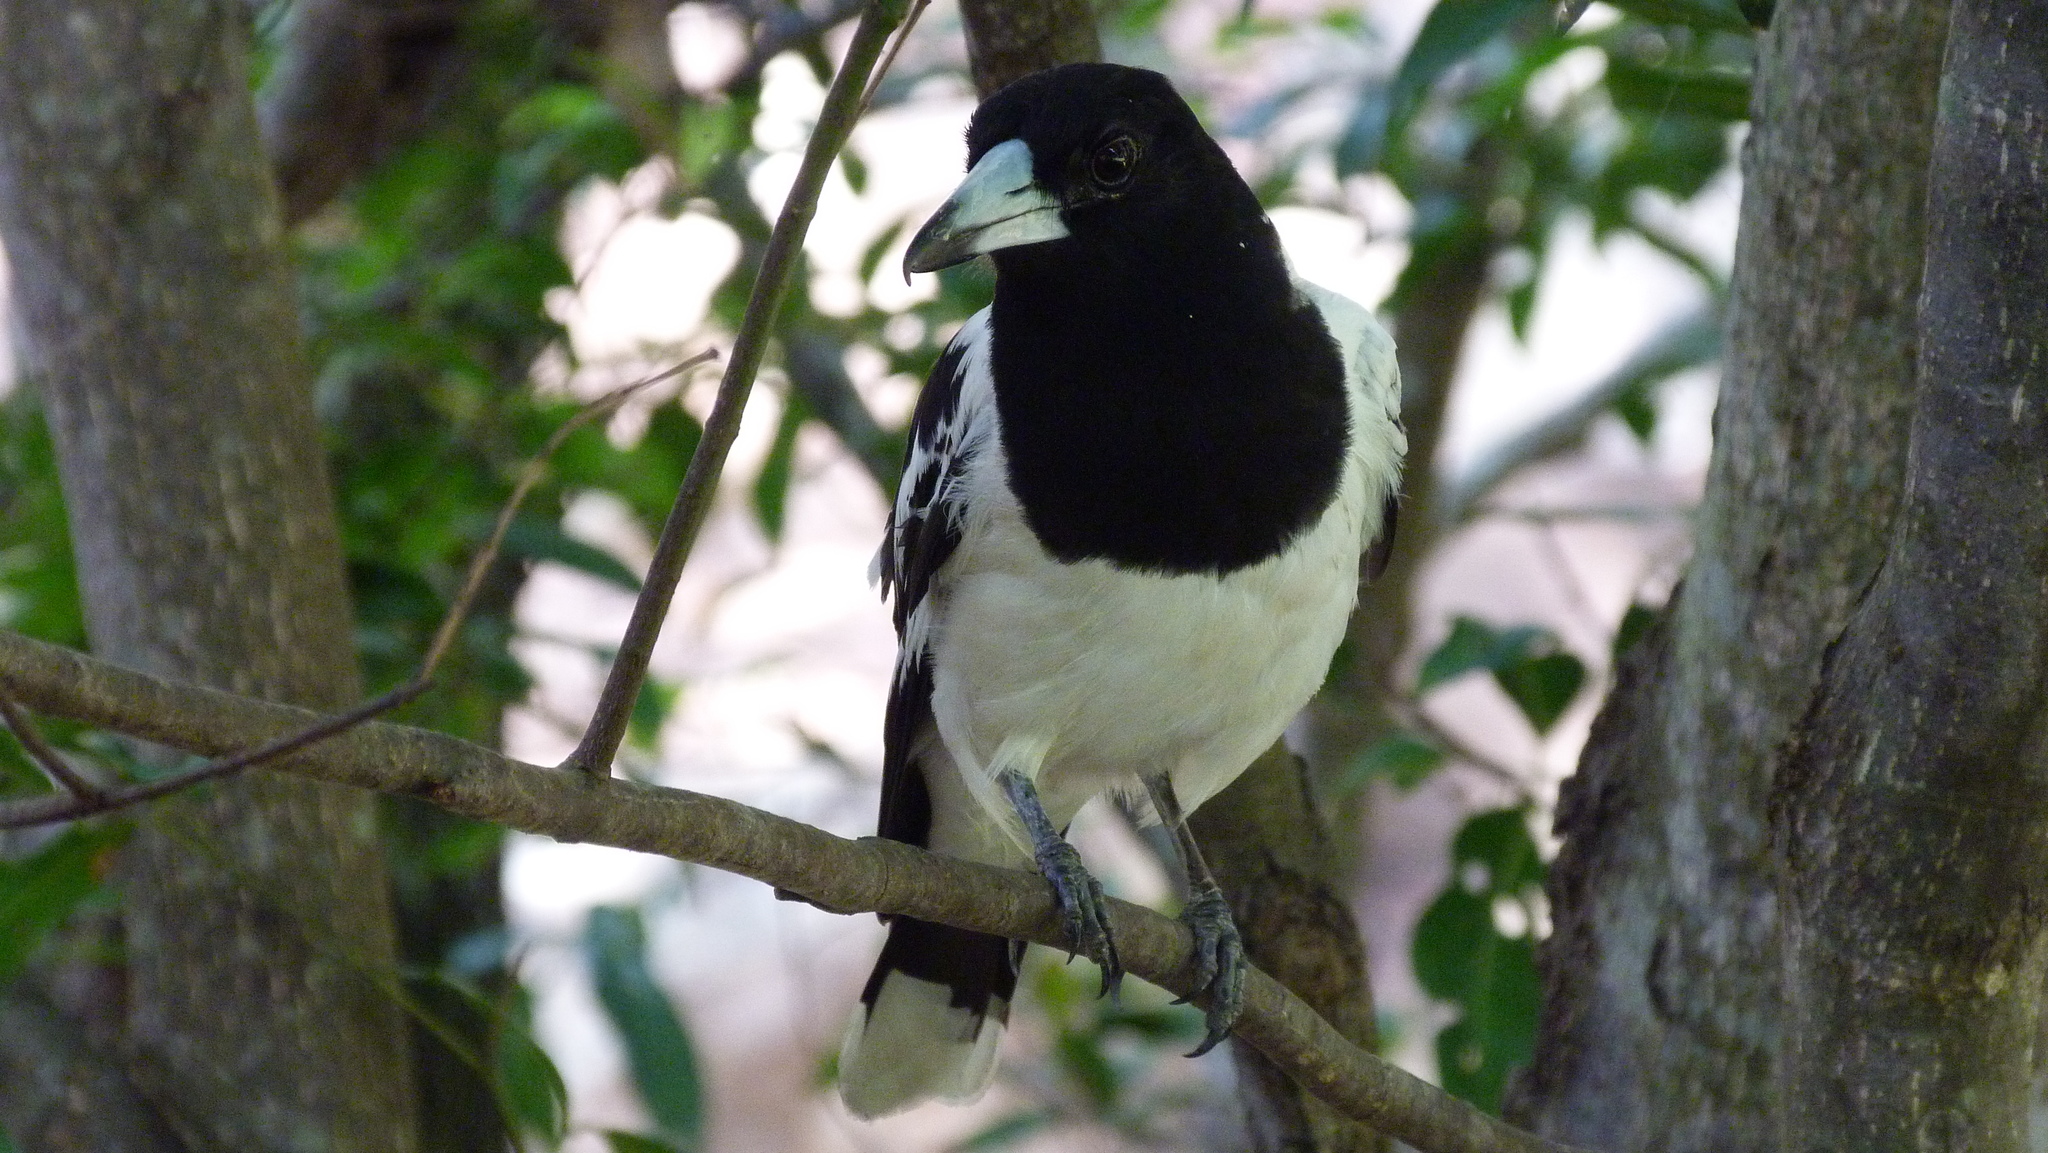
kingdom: Animalia
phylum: Chordata
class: Aves
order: Passeriformes
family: Cracticidae
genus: Cracticus
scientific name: Cracticus nigrogularis
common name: Pied butcherbird
